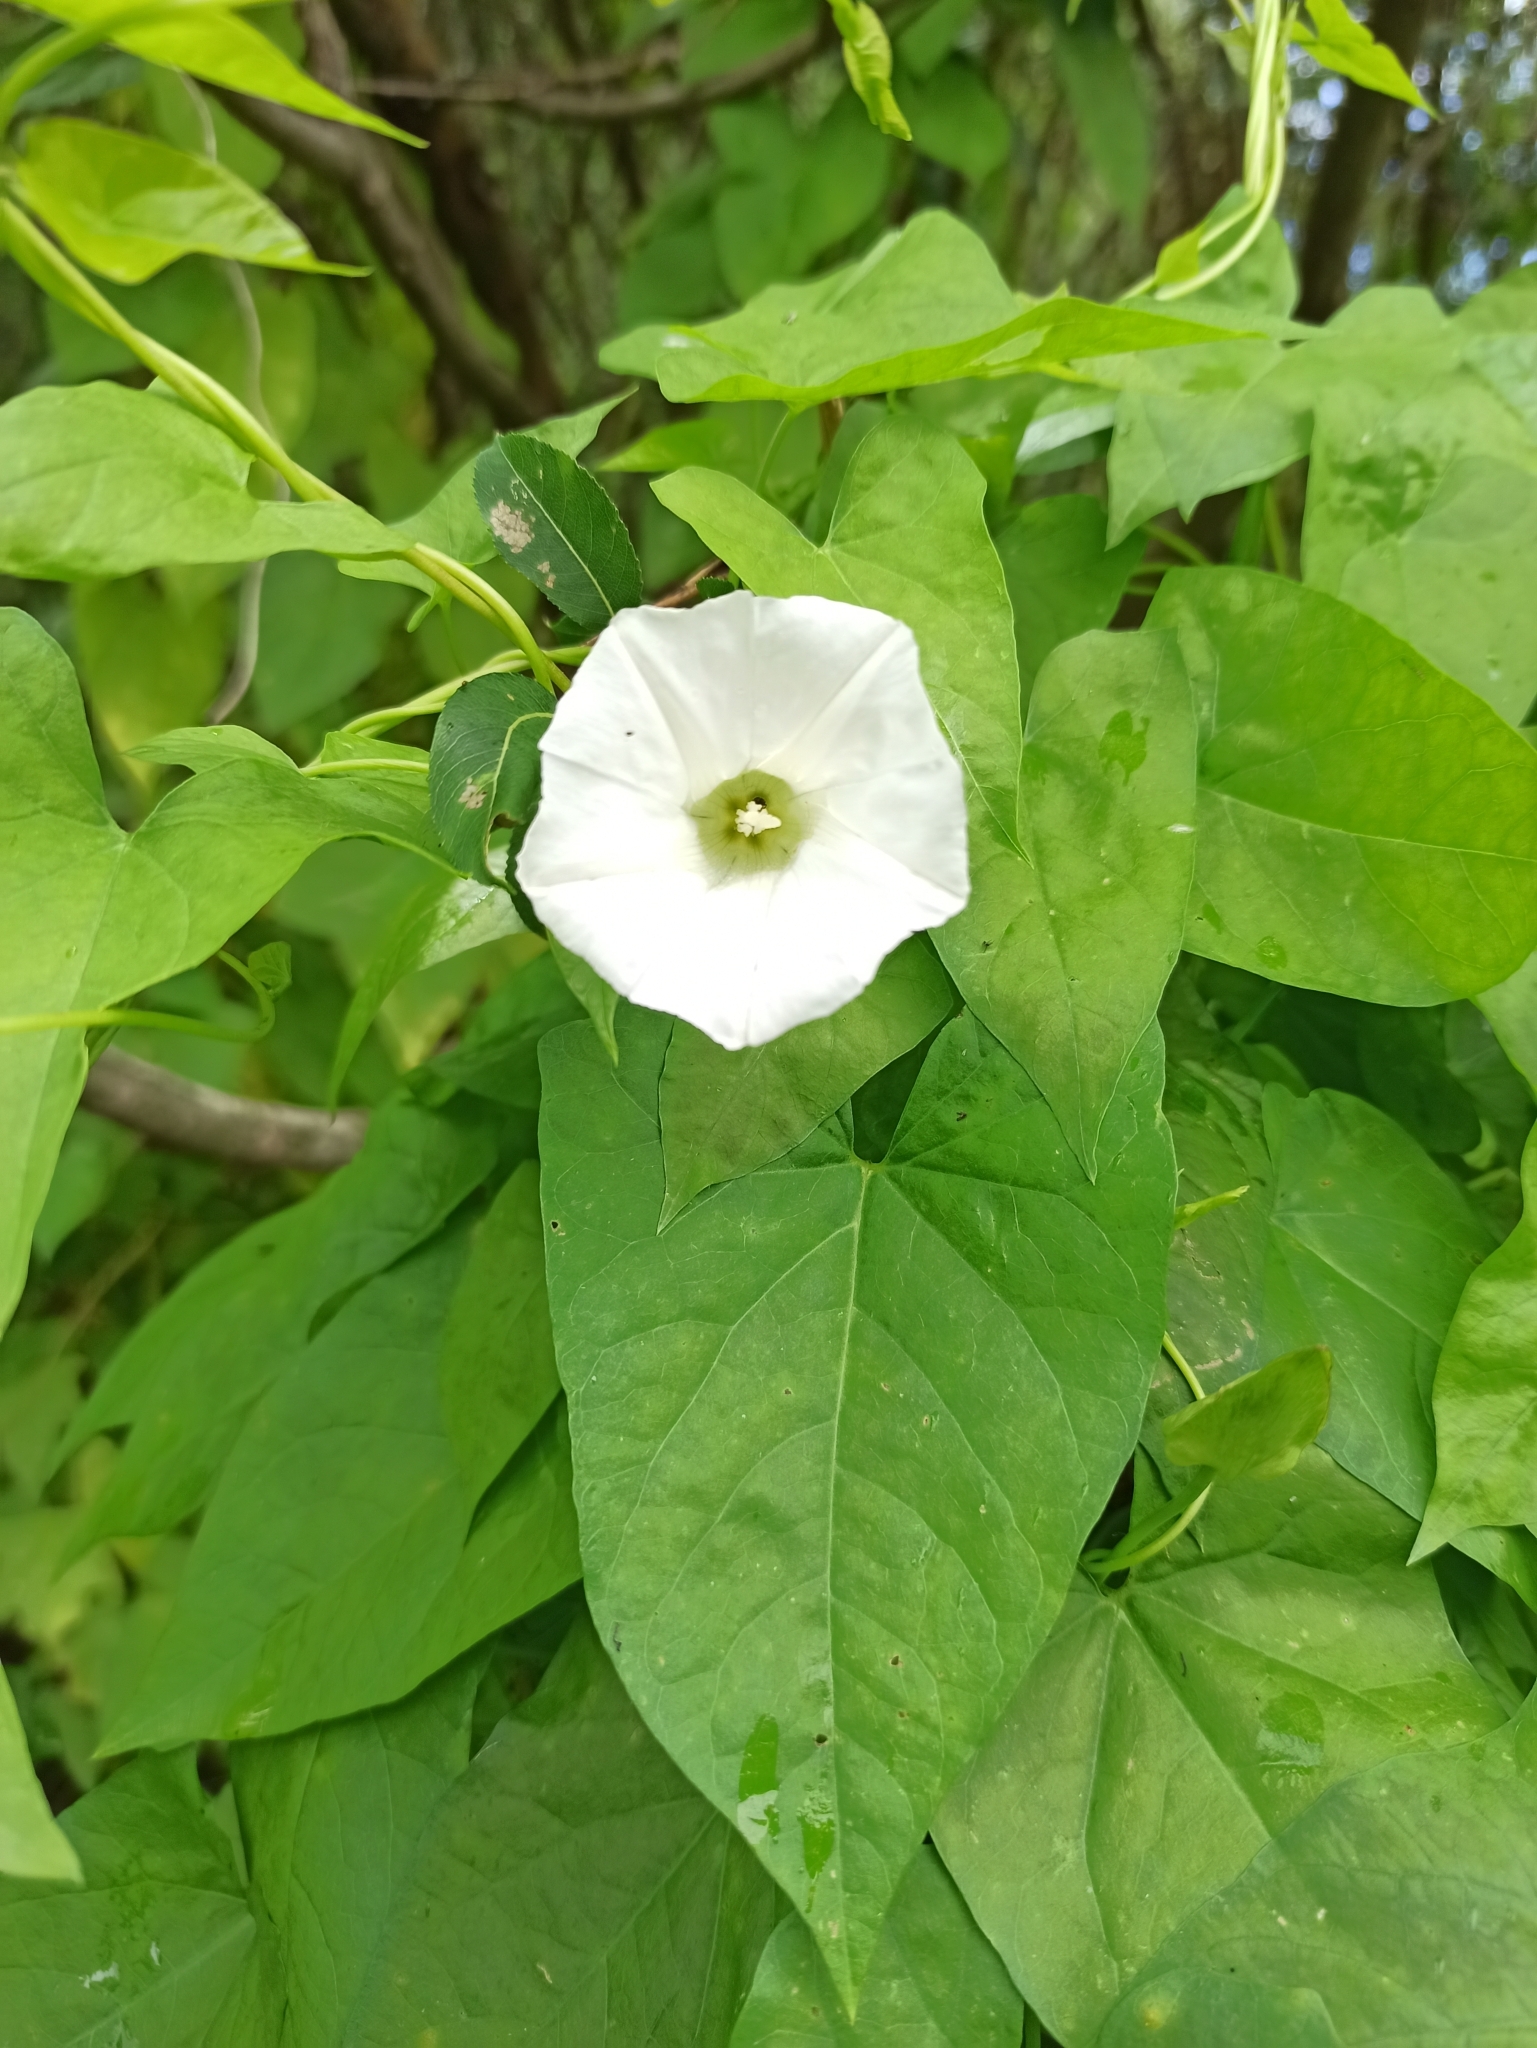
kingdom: Plantae
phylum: Tracheophyta
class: Magnoliopsida
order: Solanales
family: Convolvulaceae
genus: Calystegia
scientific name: Calystegia sepium
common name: Hedge bindweed
